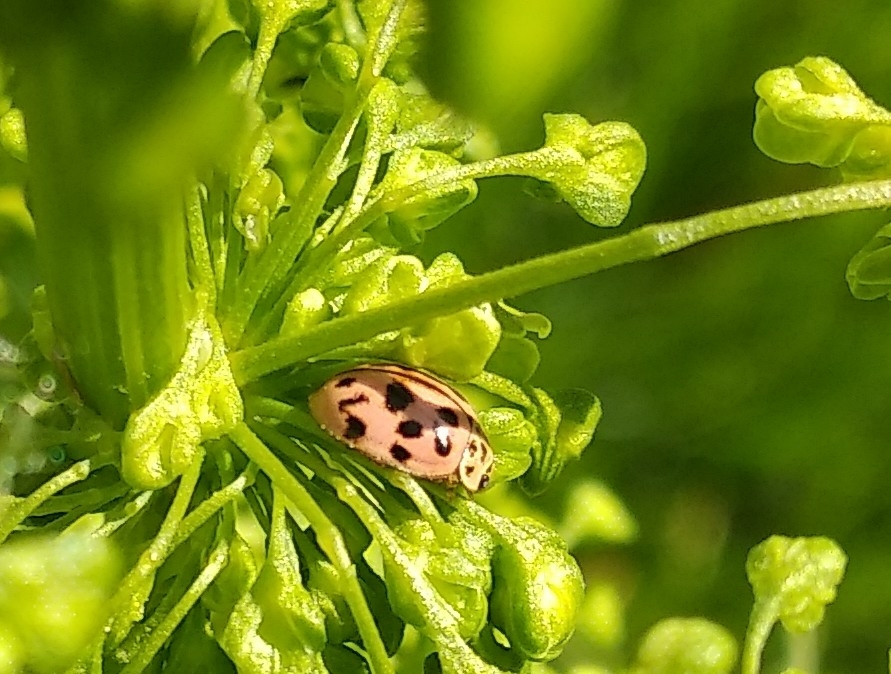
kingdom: Animalia
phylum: Arthropoda
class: Insecta
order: Coleoptera
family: Coccinellidae
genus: Oenopia
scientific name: Oenopia conglobata
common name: Ladybird beetle
